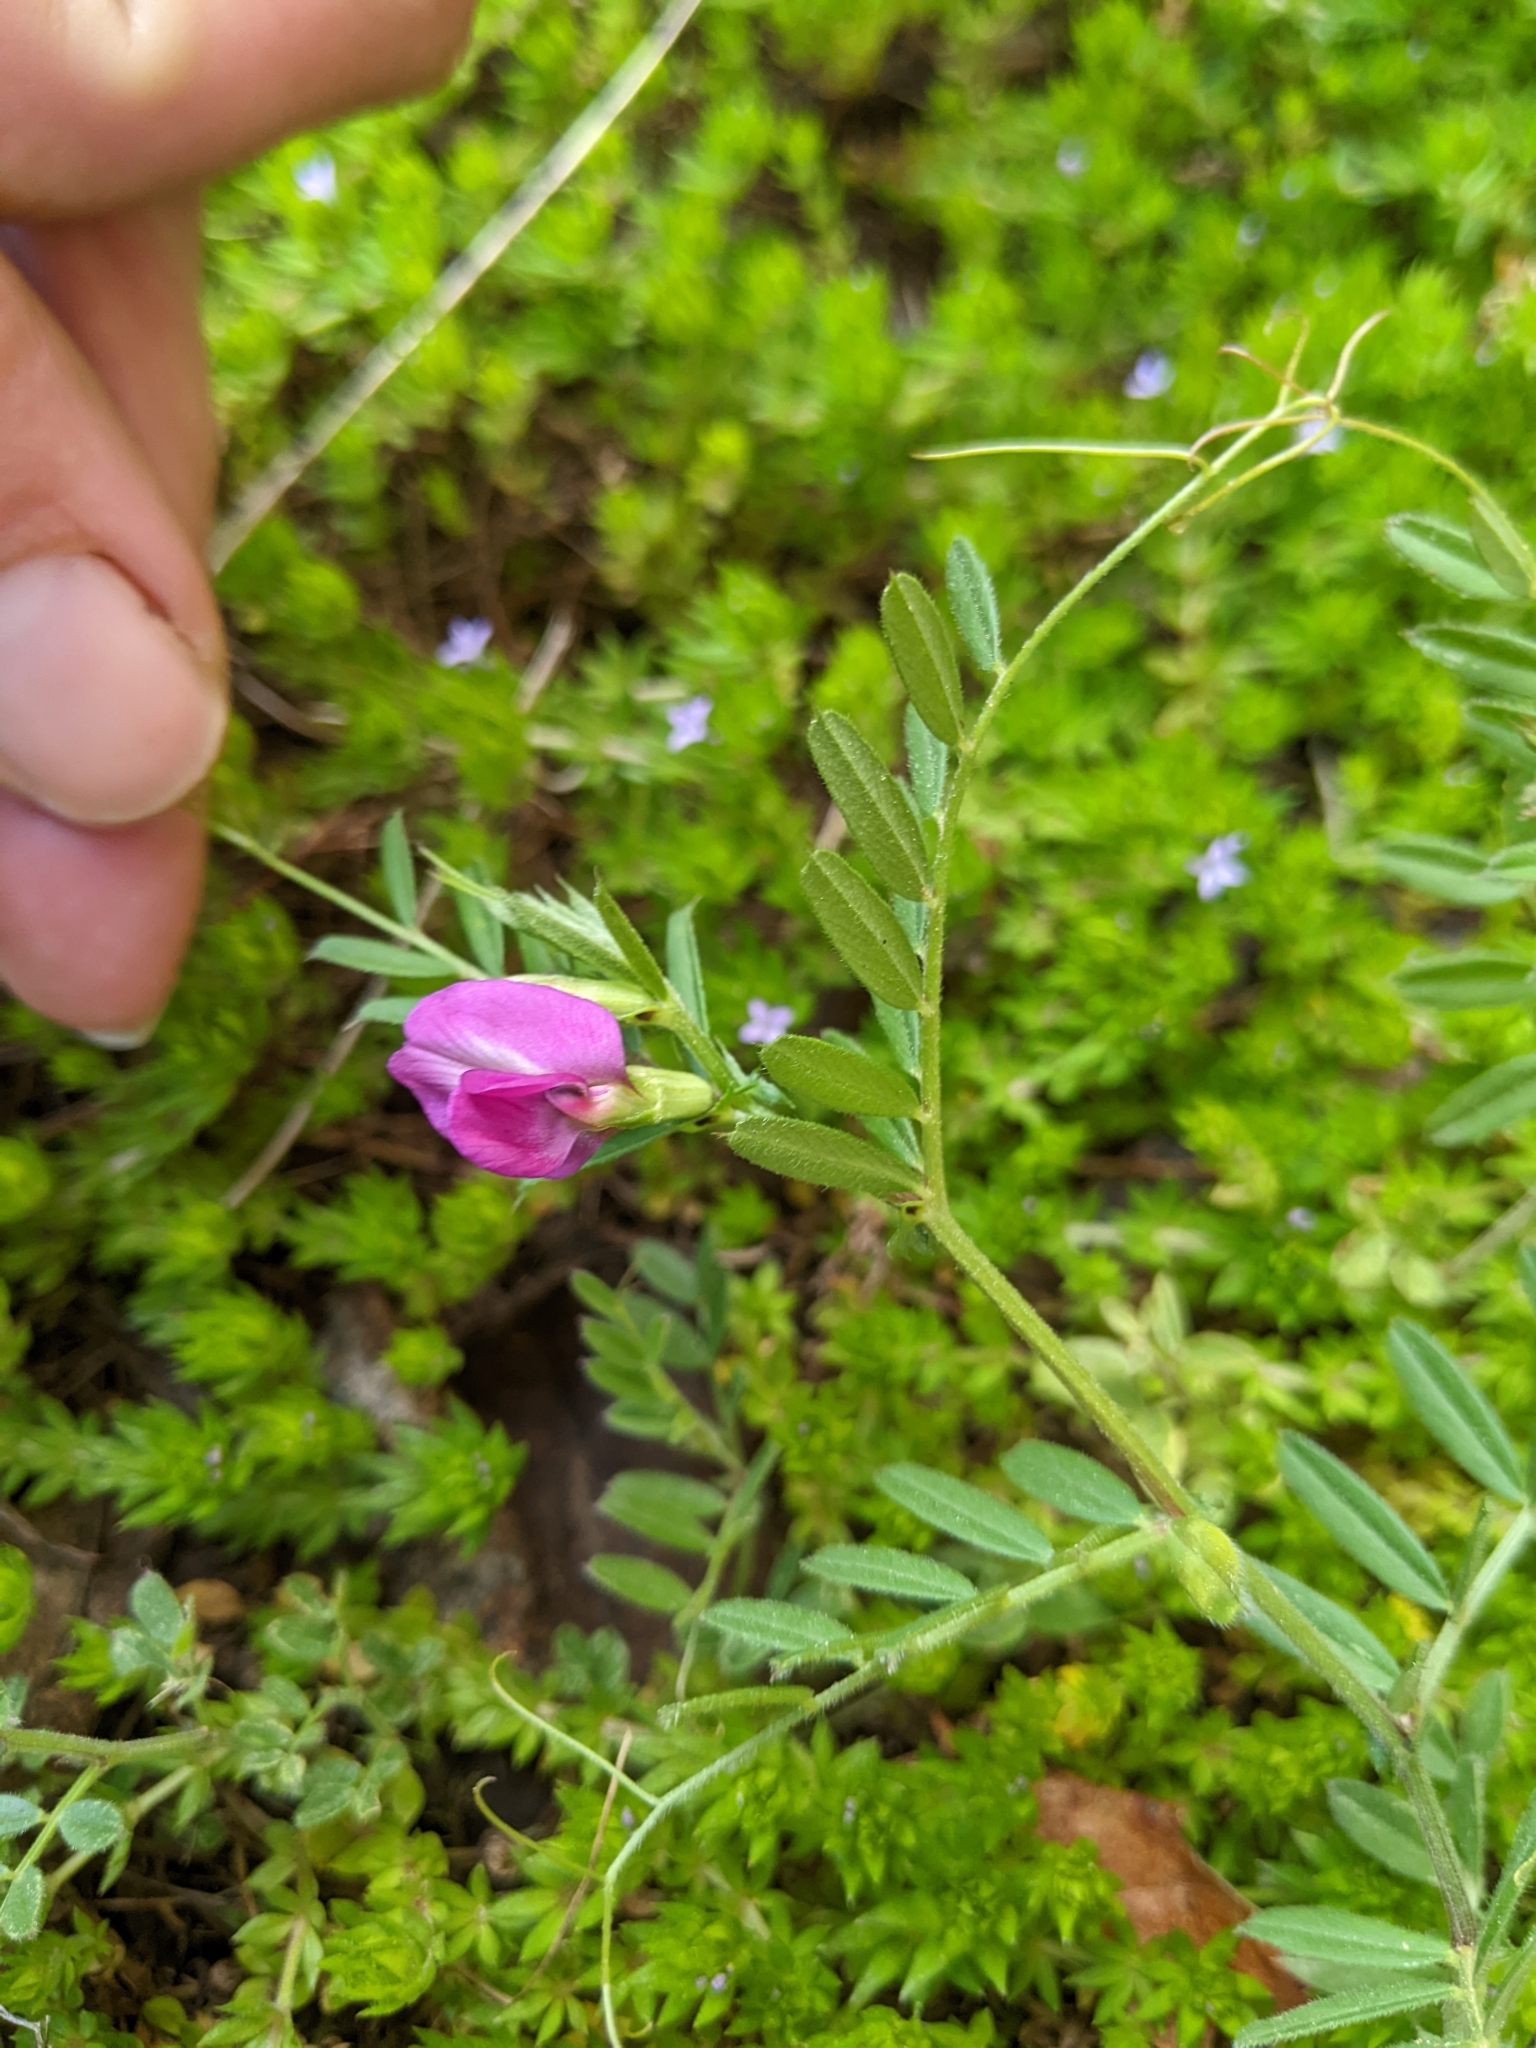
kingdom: Plantae
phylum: Tracheophyta
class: Magnoliopsida
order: Fabales
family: Fabaceae
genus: Vicia
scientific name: Vicia sativa
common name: Garden vetch
